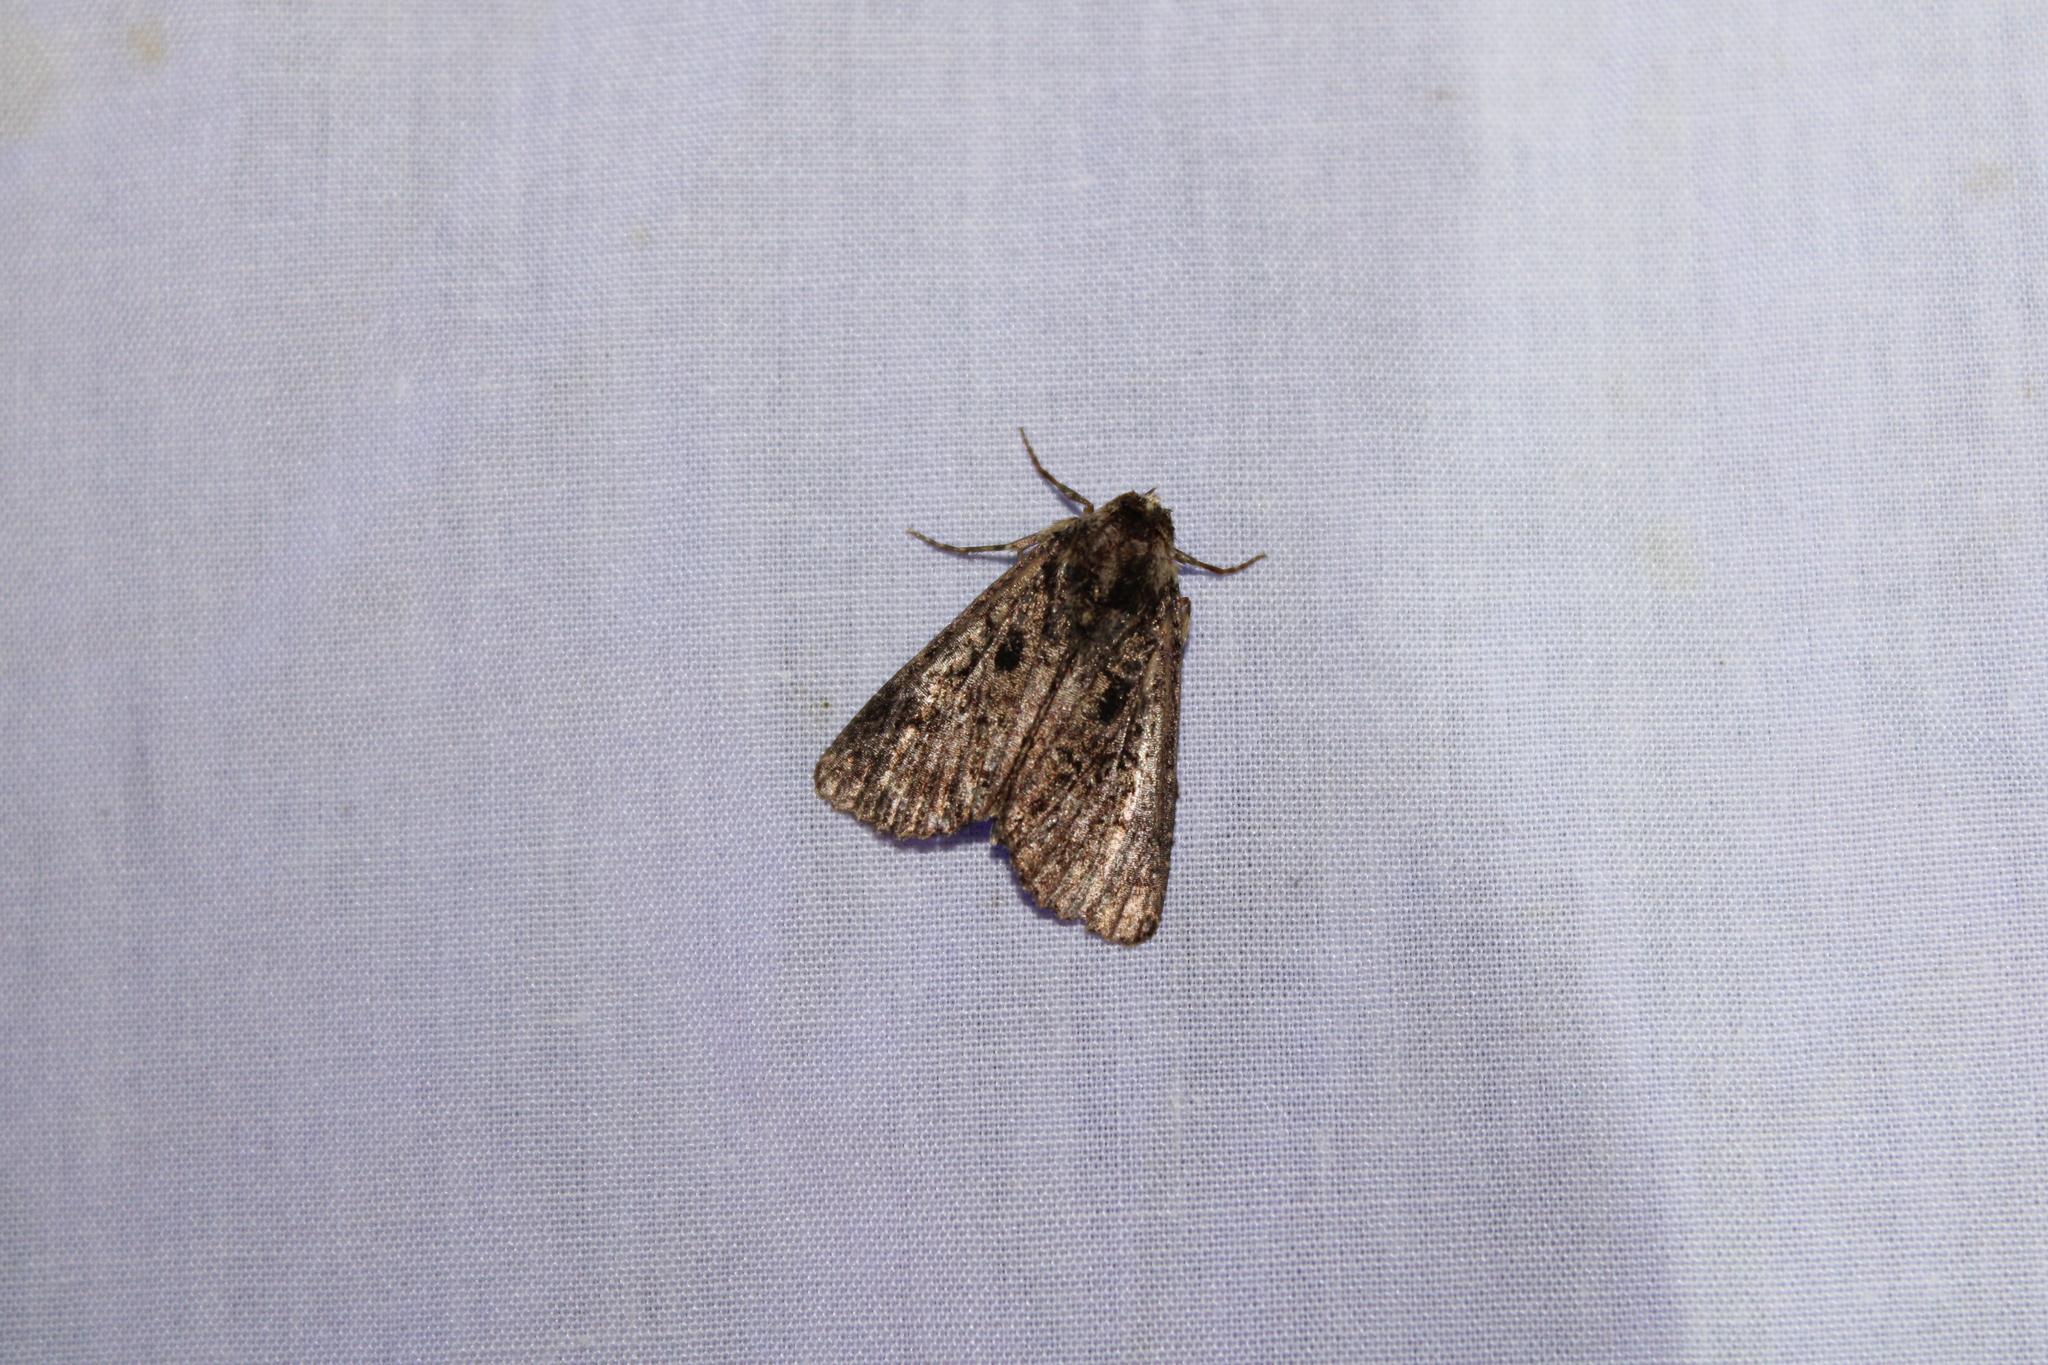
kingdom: Animalia
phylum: Arthropoda
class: Insecta
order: Lepidoptera
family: Noctuidae
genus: Condica
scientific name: Condica vecors
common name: Dusky groundling
